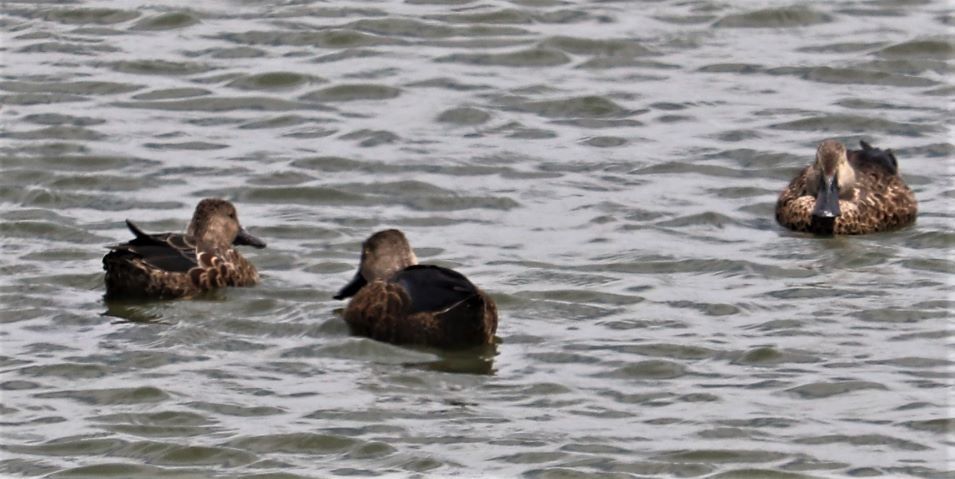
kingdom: Animalia
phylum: Chordata
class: Aves
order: Anseriformes
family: Anatidae
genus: Spatula
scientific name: Spatula smithii
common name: Cape shoveler
